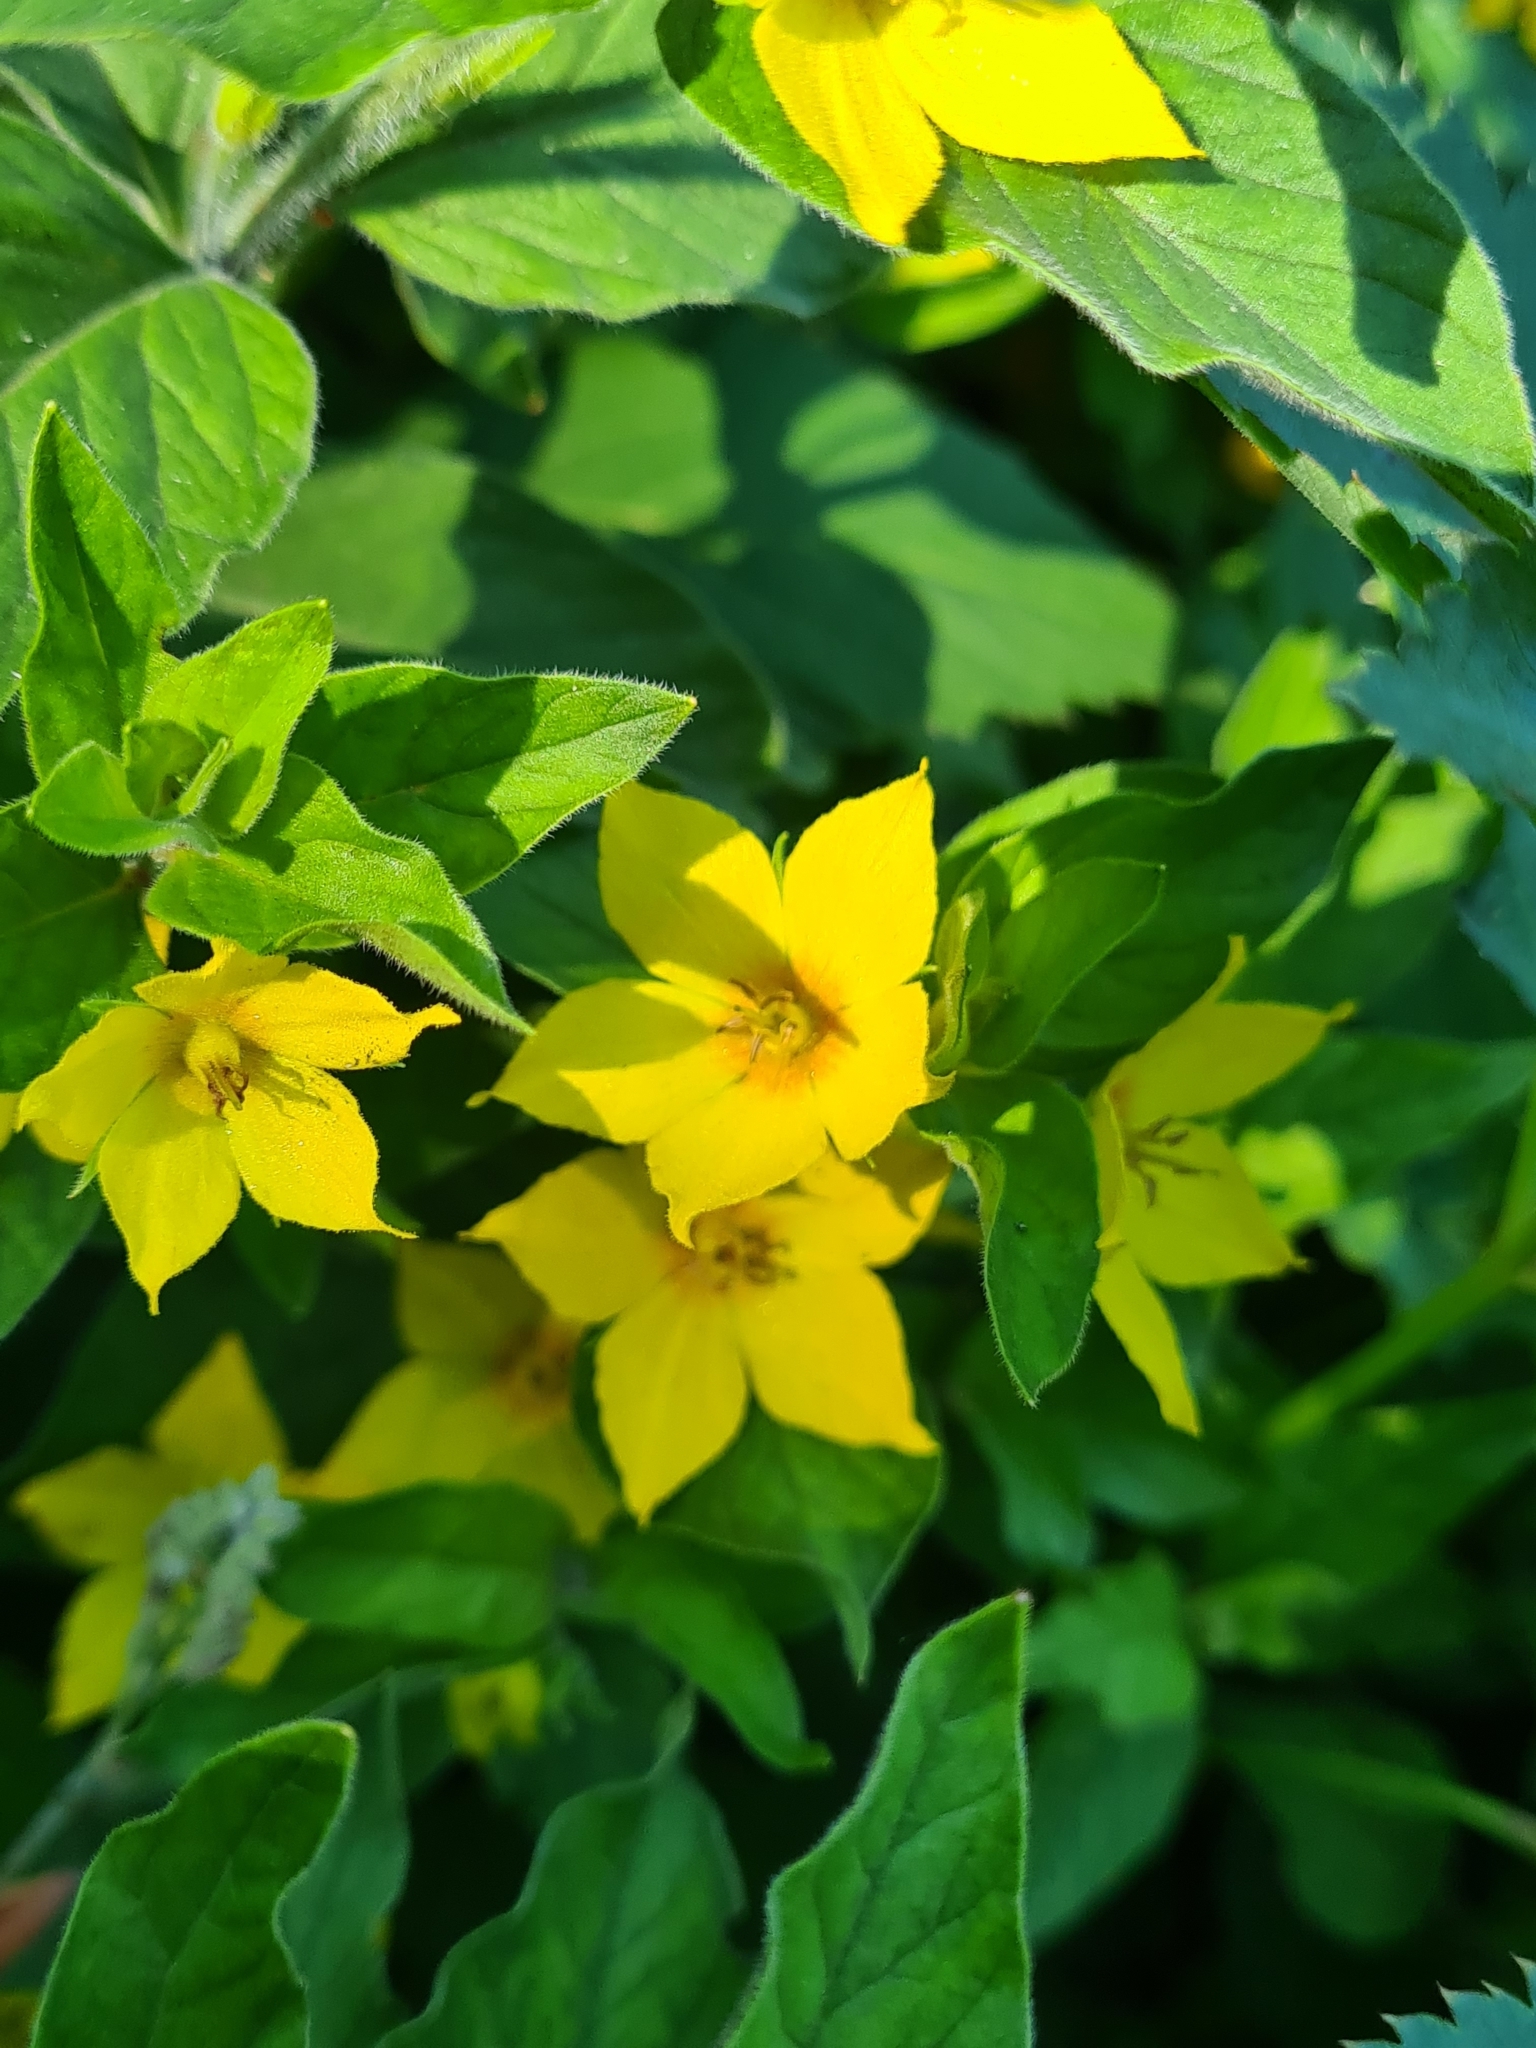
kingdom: Plantae
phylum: Tracheophyta
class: Magnoliopsida
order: Ericales
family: Primulaceae
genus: Lysimachia
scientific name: Lysimachia punctata
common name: Dotted loosestrife
